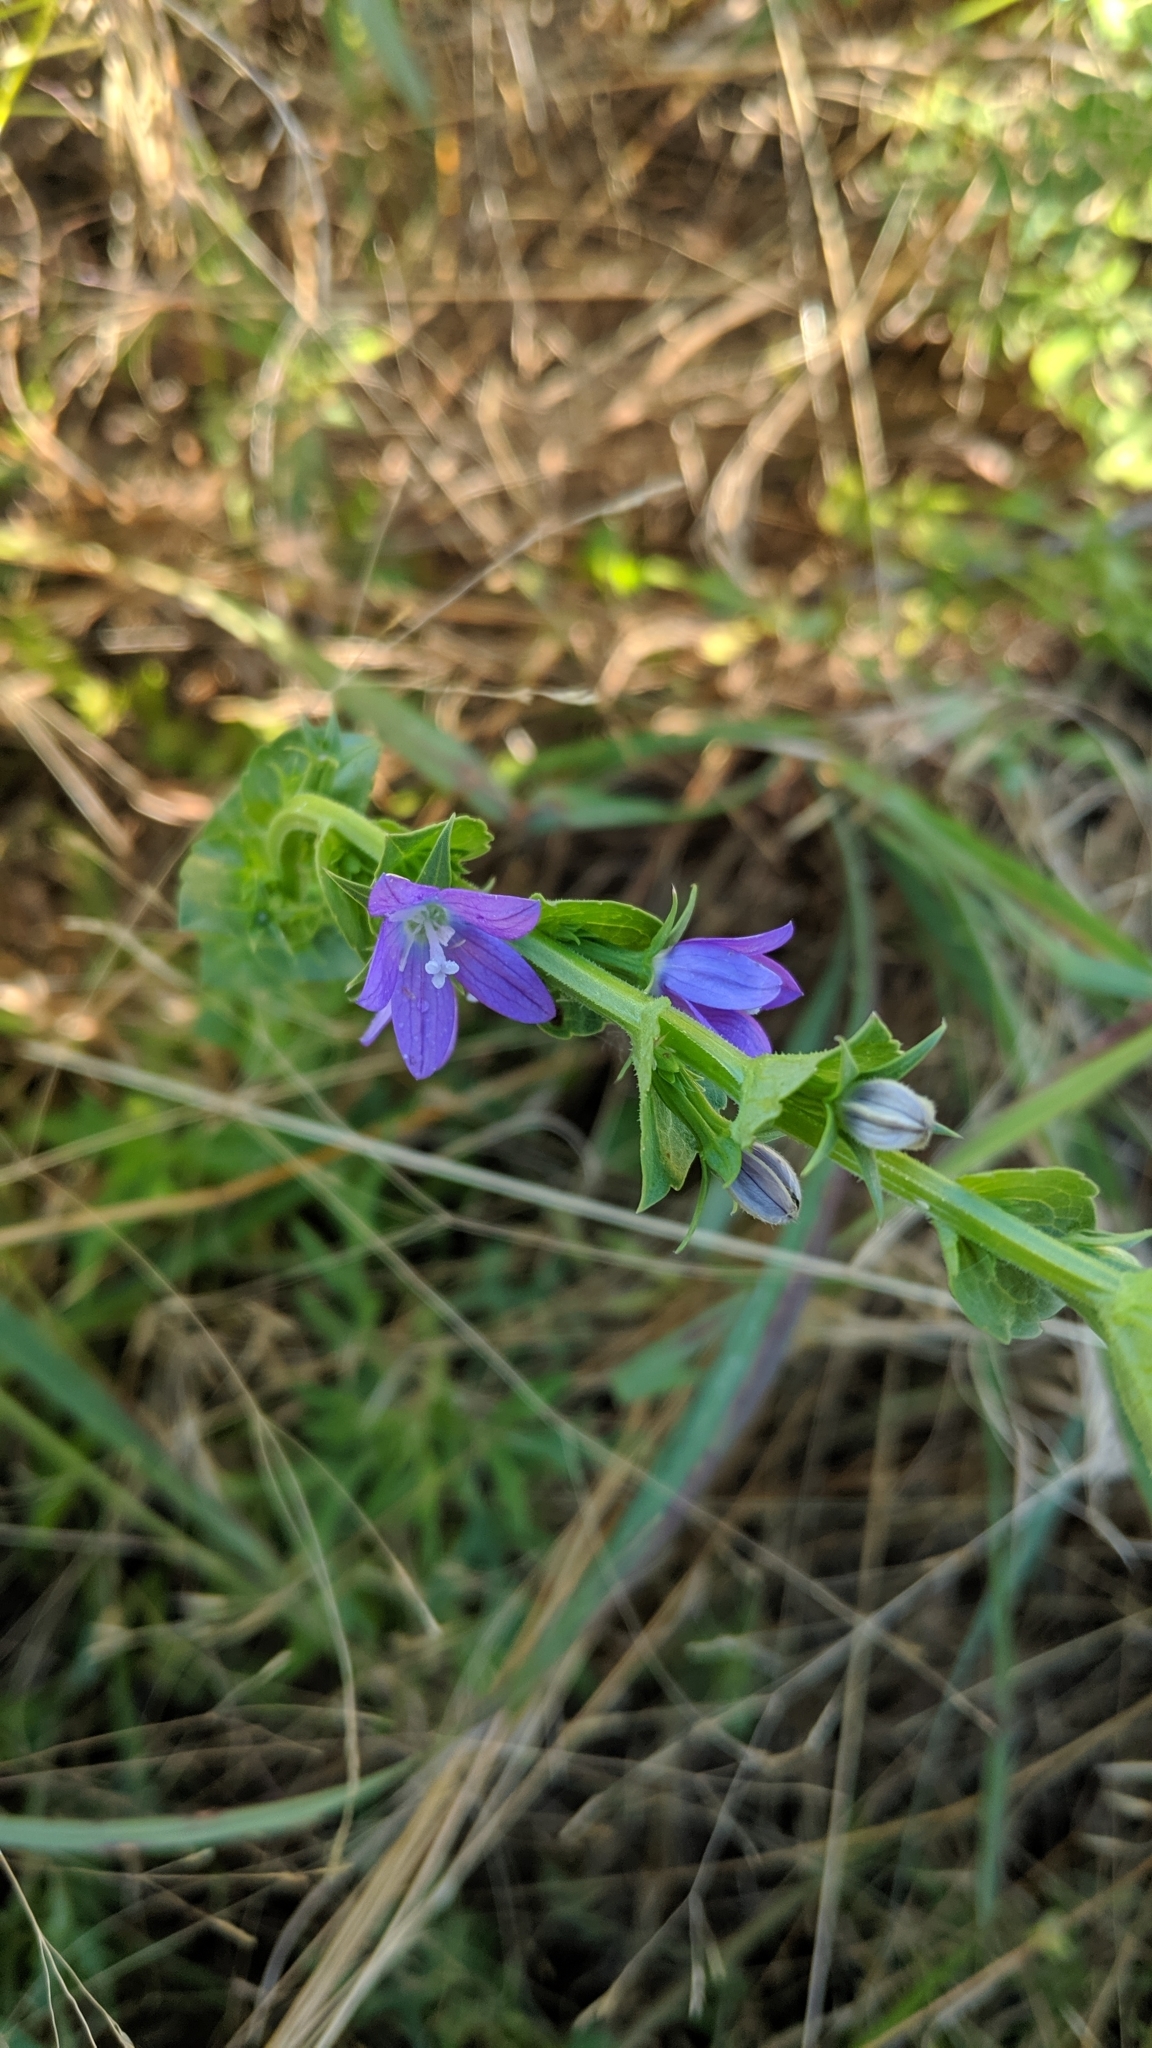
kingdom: Plantae
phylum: Tracheophyta
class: Magnoliopsida
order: Asterales
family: Campanulaceae
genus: Triodanis
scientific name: Triodanis perfoliata
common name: Clasping venus' looking-glass
